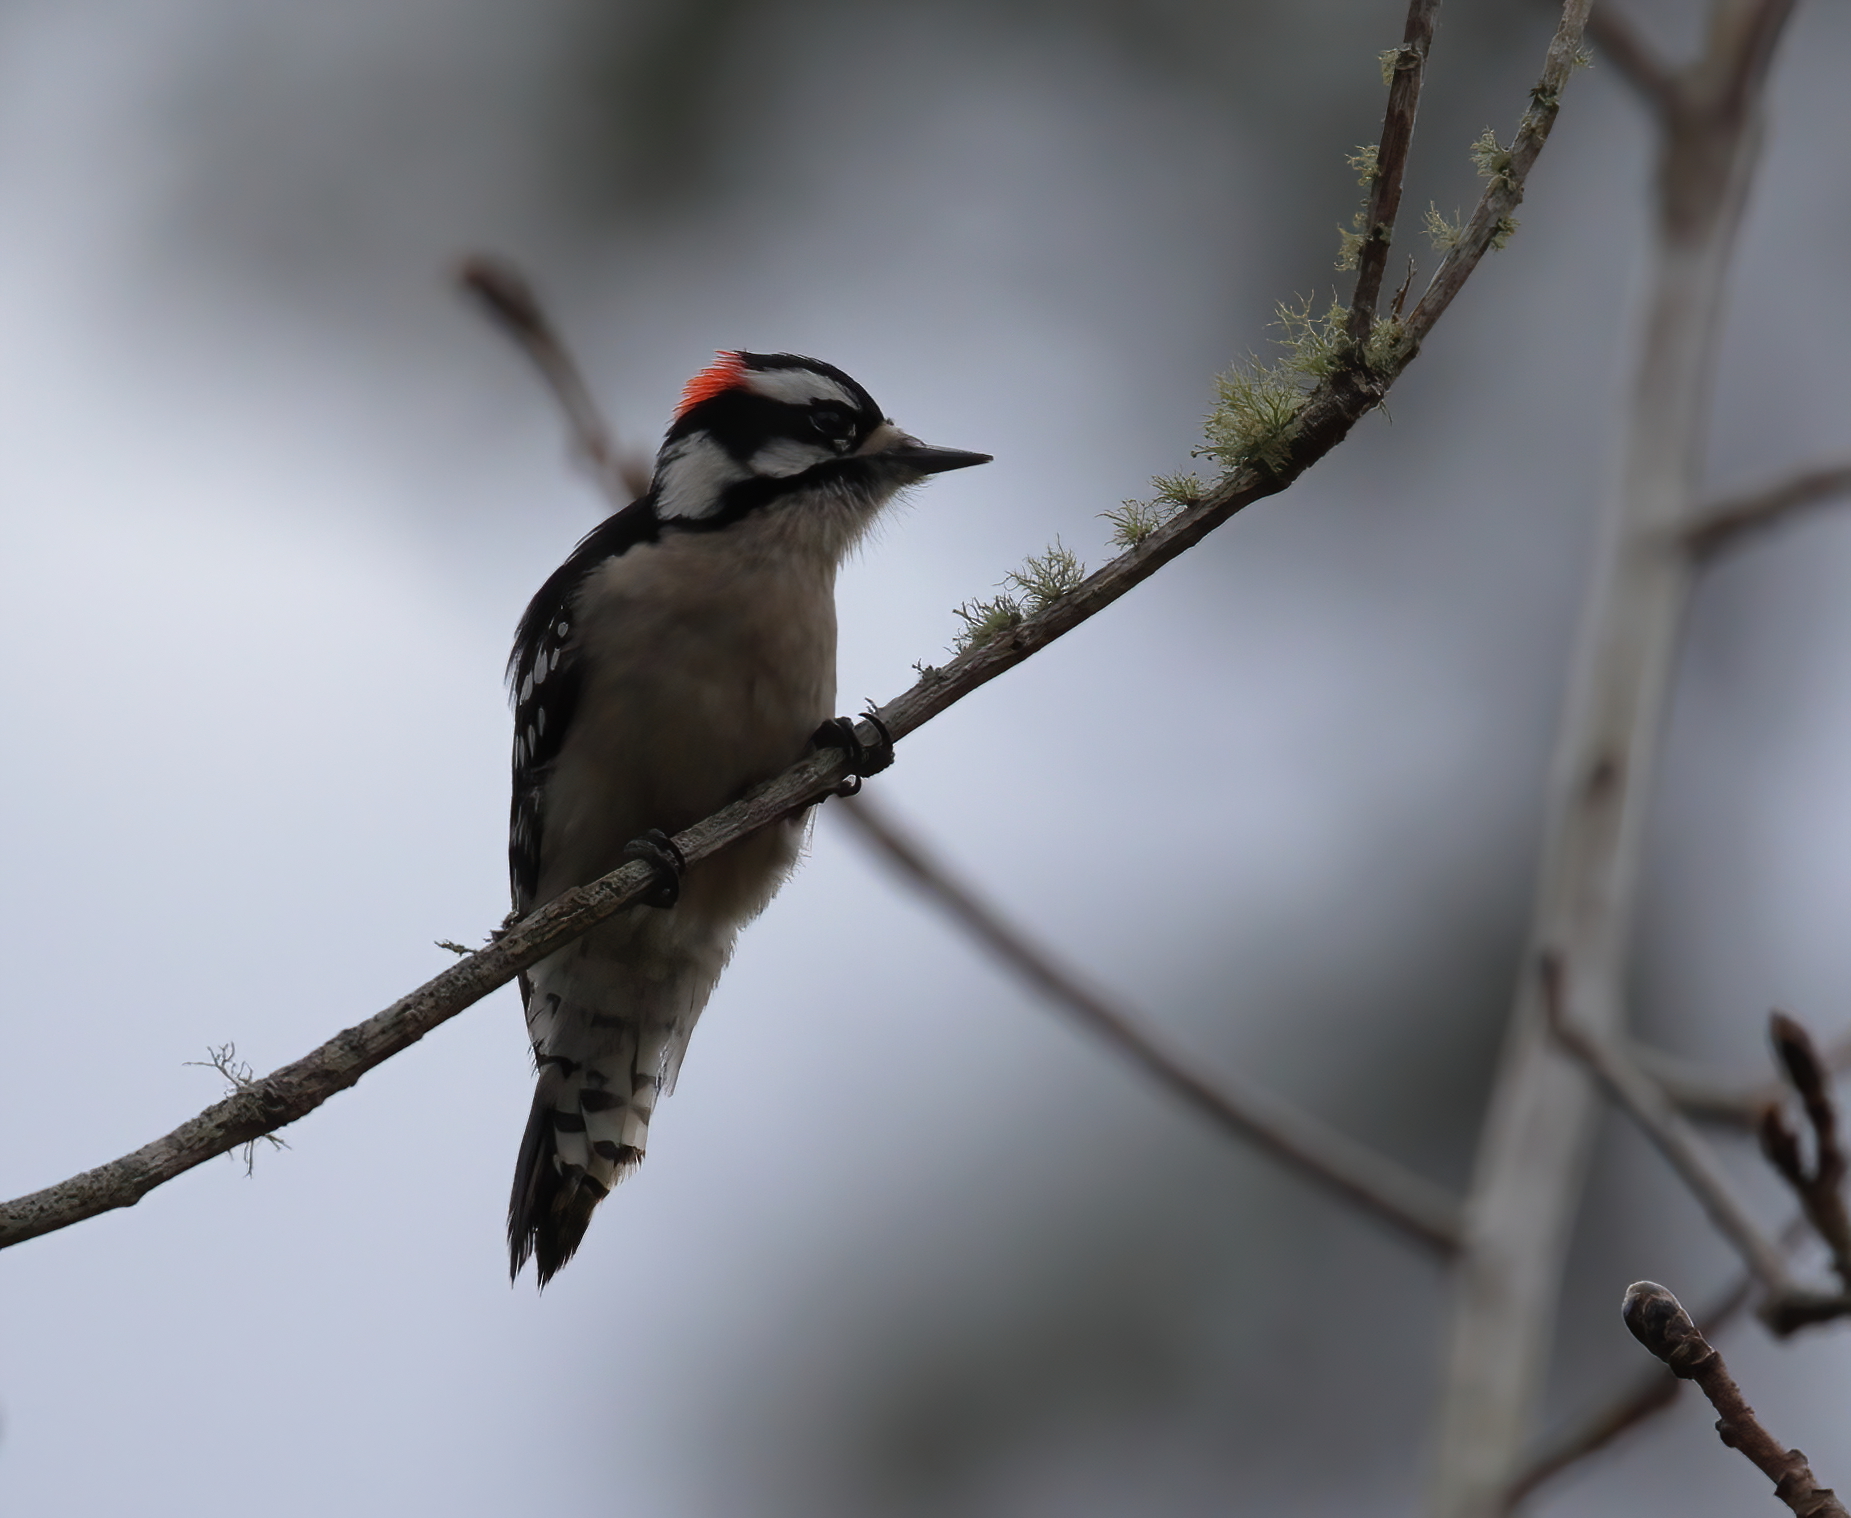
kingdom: Animalia
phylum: Chordata
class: Aves
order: Piciformes
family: Picidae
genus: Dryobates
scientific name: Dryobates pubescens
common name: Downy woodpecker
